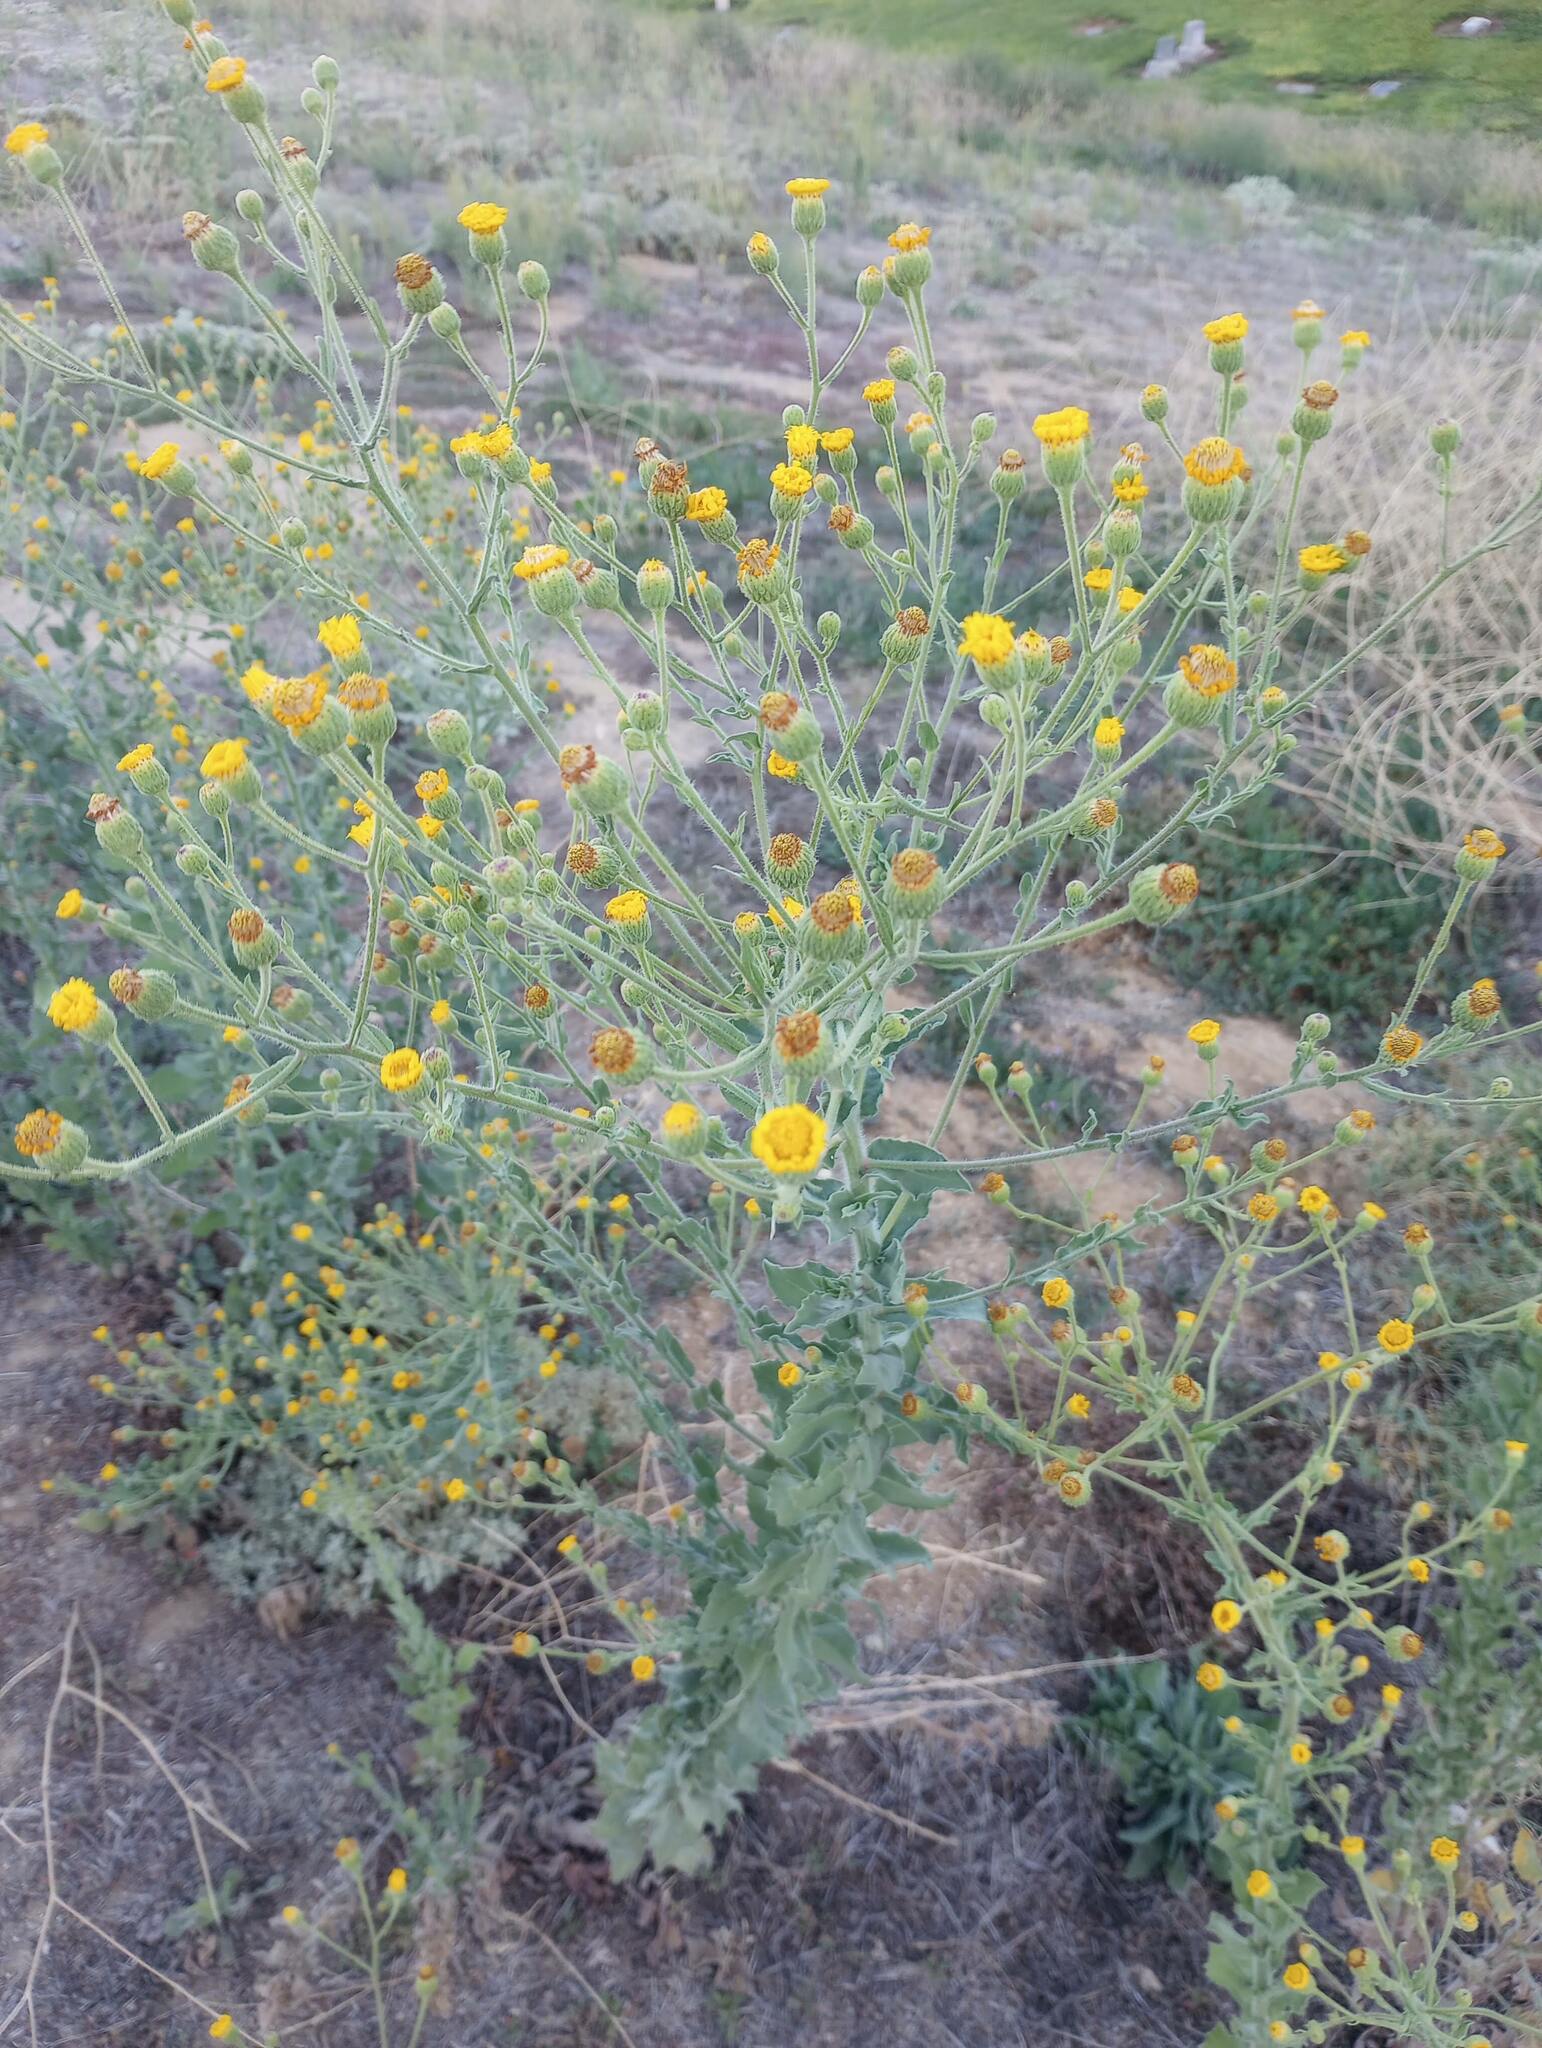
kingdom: Plantae
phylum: Tracheophyta
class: Magnoliopsida
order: Asterales
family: Asteraceae
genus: Heterotheca
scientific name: Heterotheca grandiflora
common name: Telegraphweed
